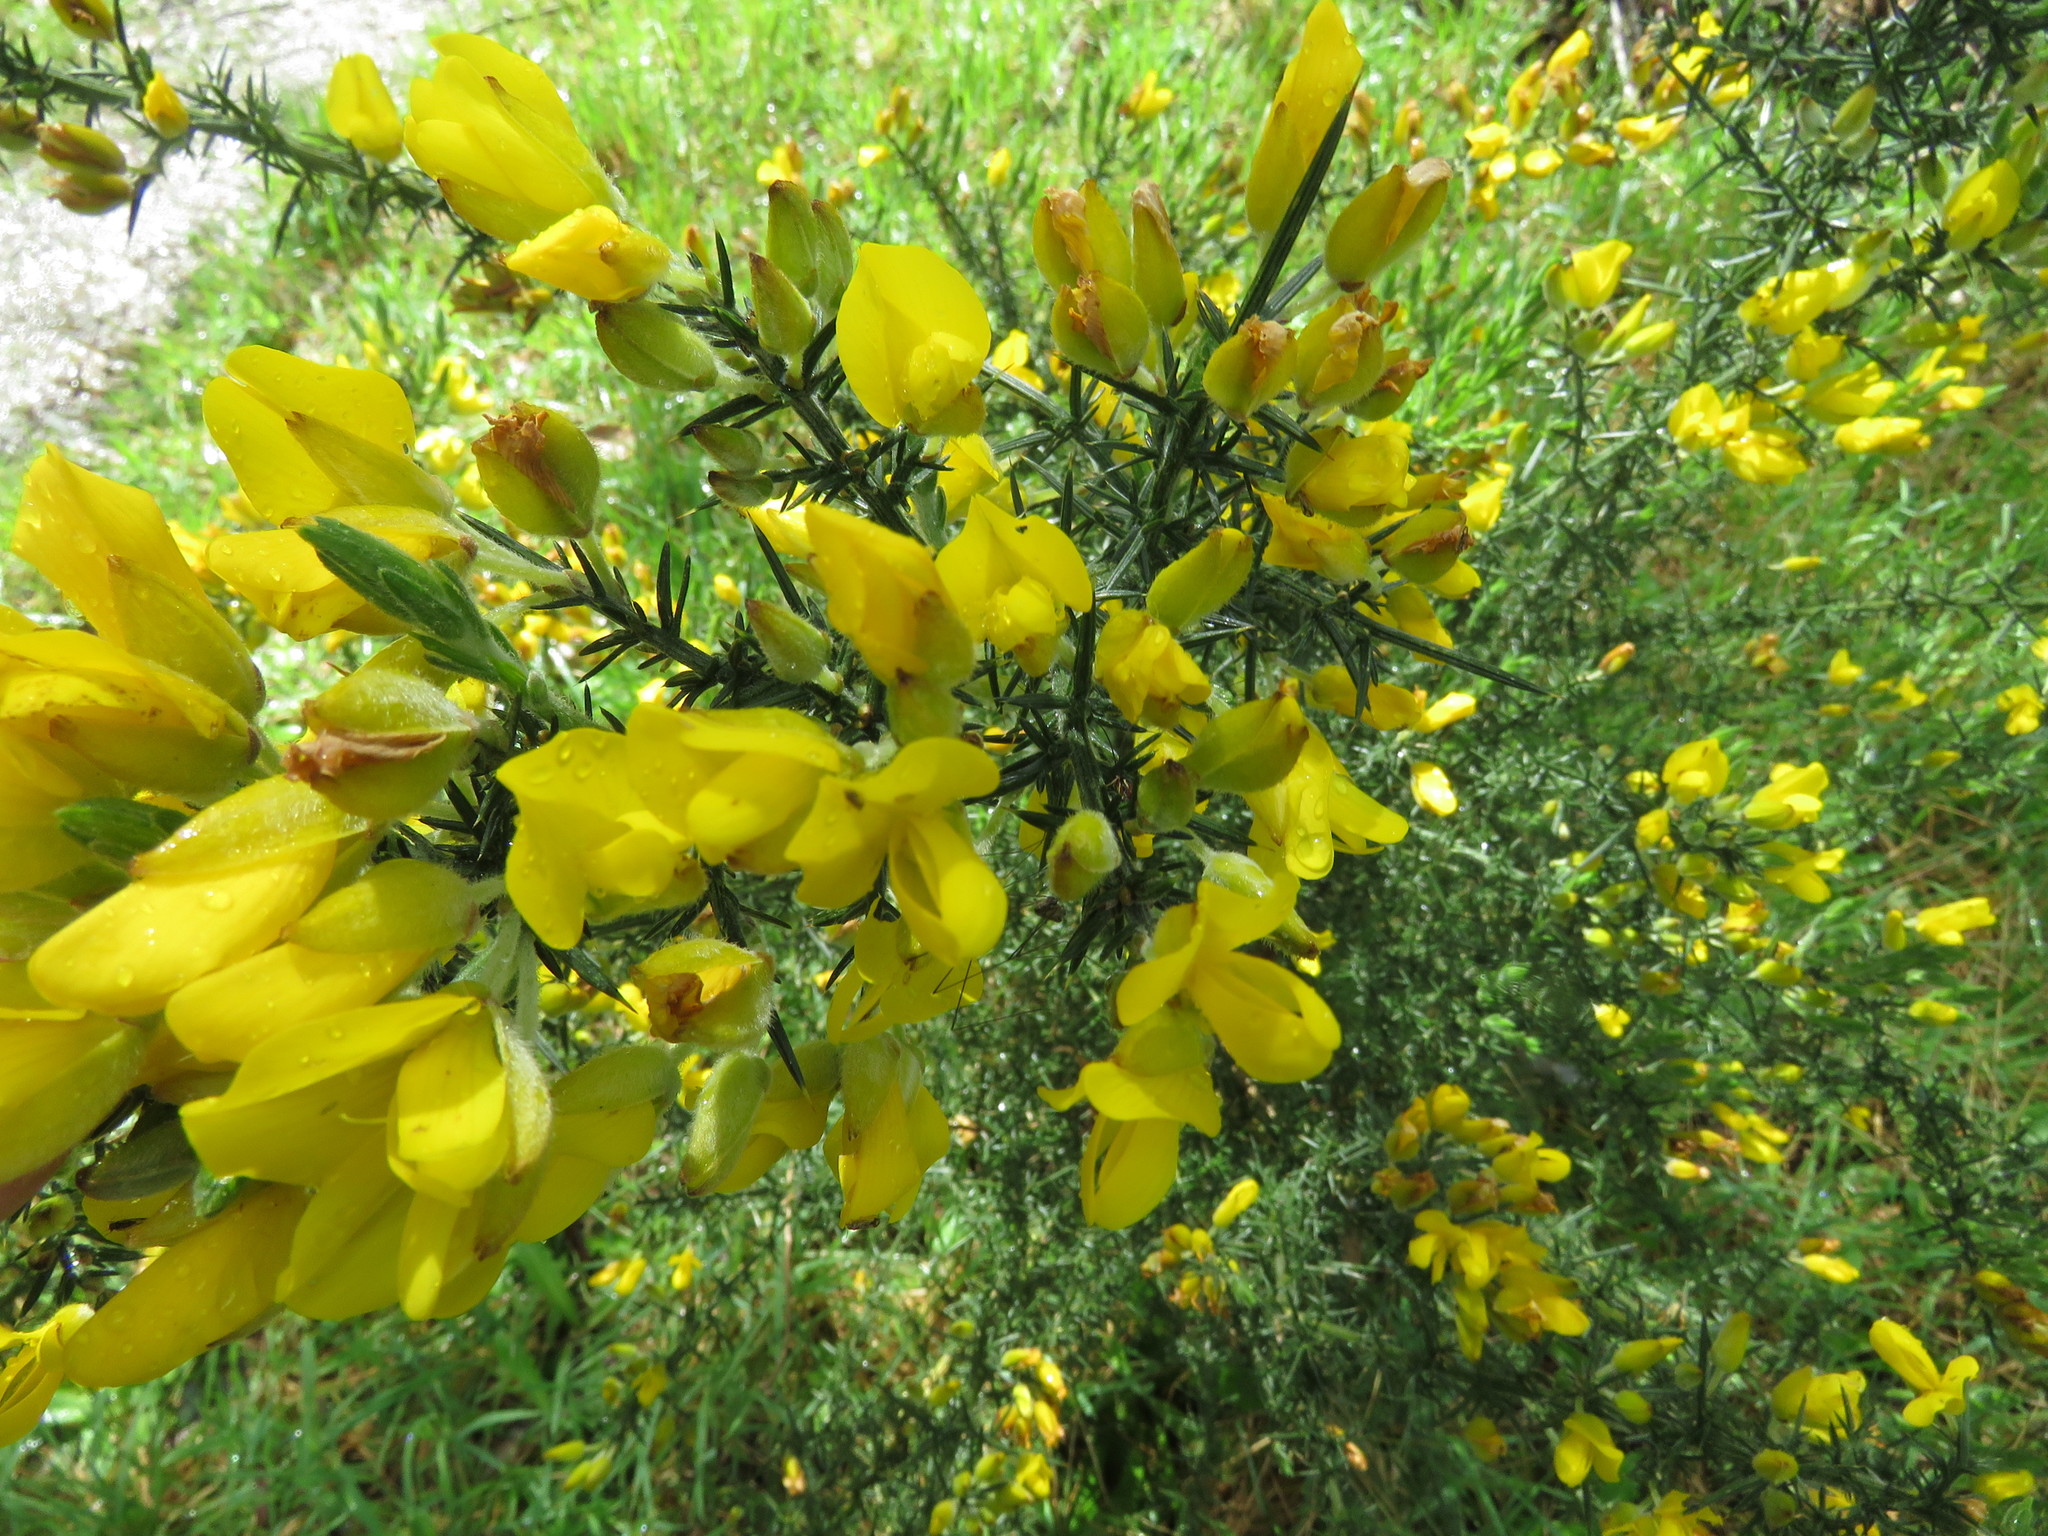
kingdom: Plantae
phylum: Tracheophyta
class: Magnoliopsida
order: Fabales
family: Fabaceae
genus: Ulex
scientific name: Ulex europaeus
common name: Common gorse
